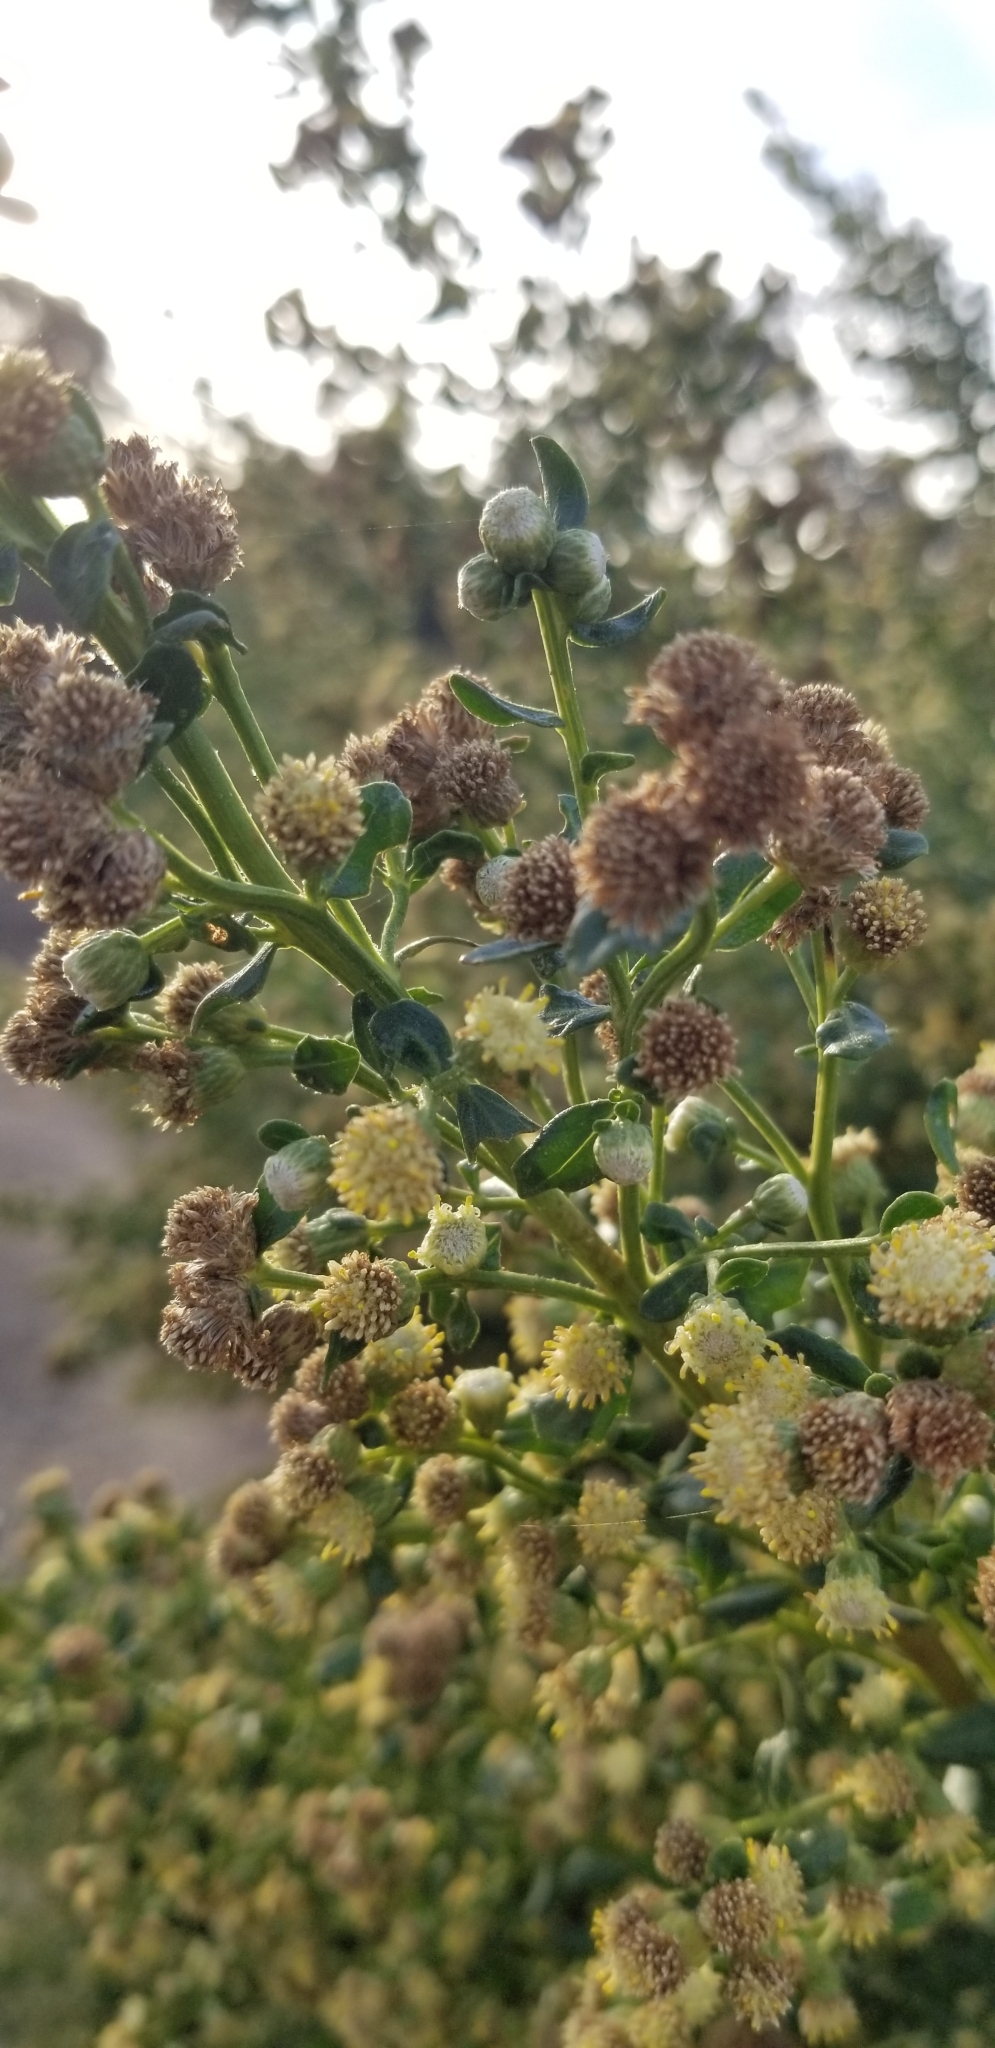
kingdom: Plantae
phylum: Tracheophyta
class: Magnoliopsida
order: Asterales
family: Asteraceae
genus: Baccharis
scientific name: Baccharis pilularis
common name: Coyotebrush
